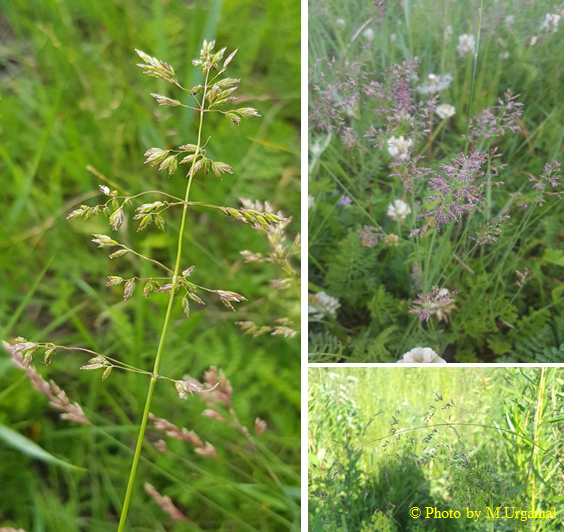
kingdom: Plantae
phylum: Tracheophyta
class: Liliopsida
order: Poales
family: Poaceae
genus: Poa
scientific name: Poa pratensis
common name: Kentucky bluegrass
